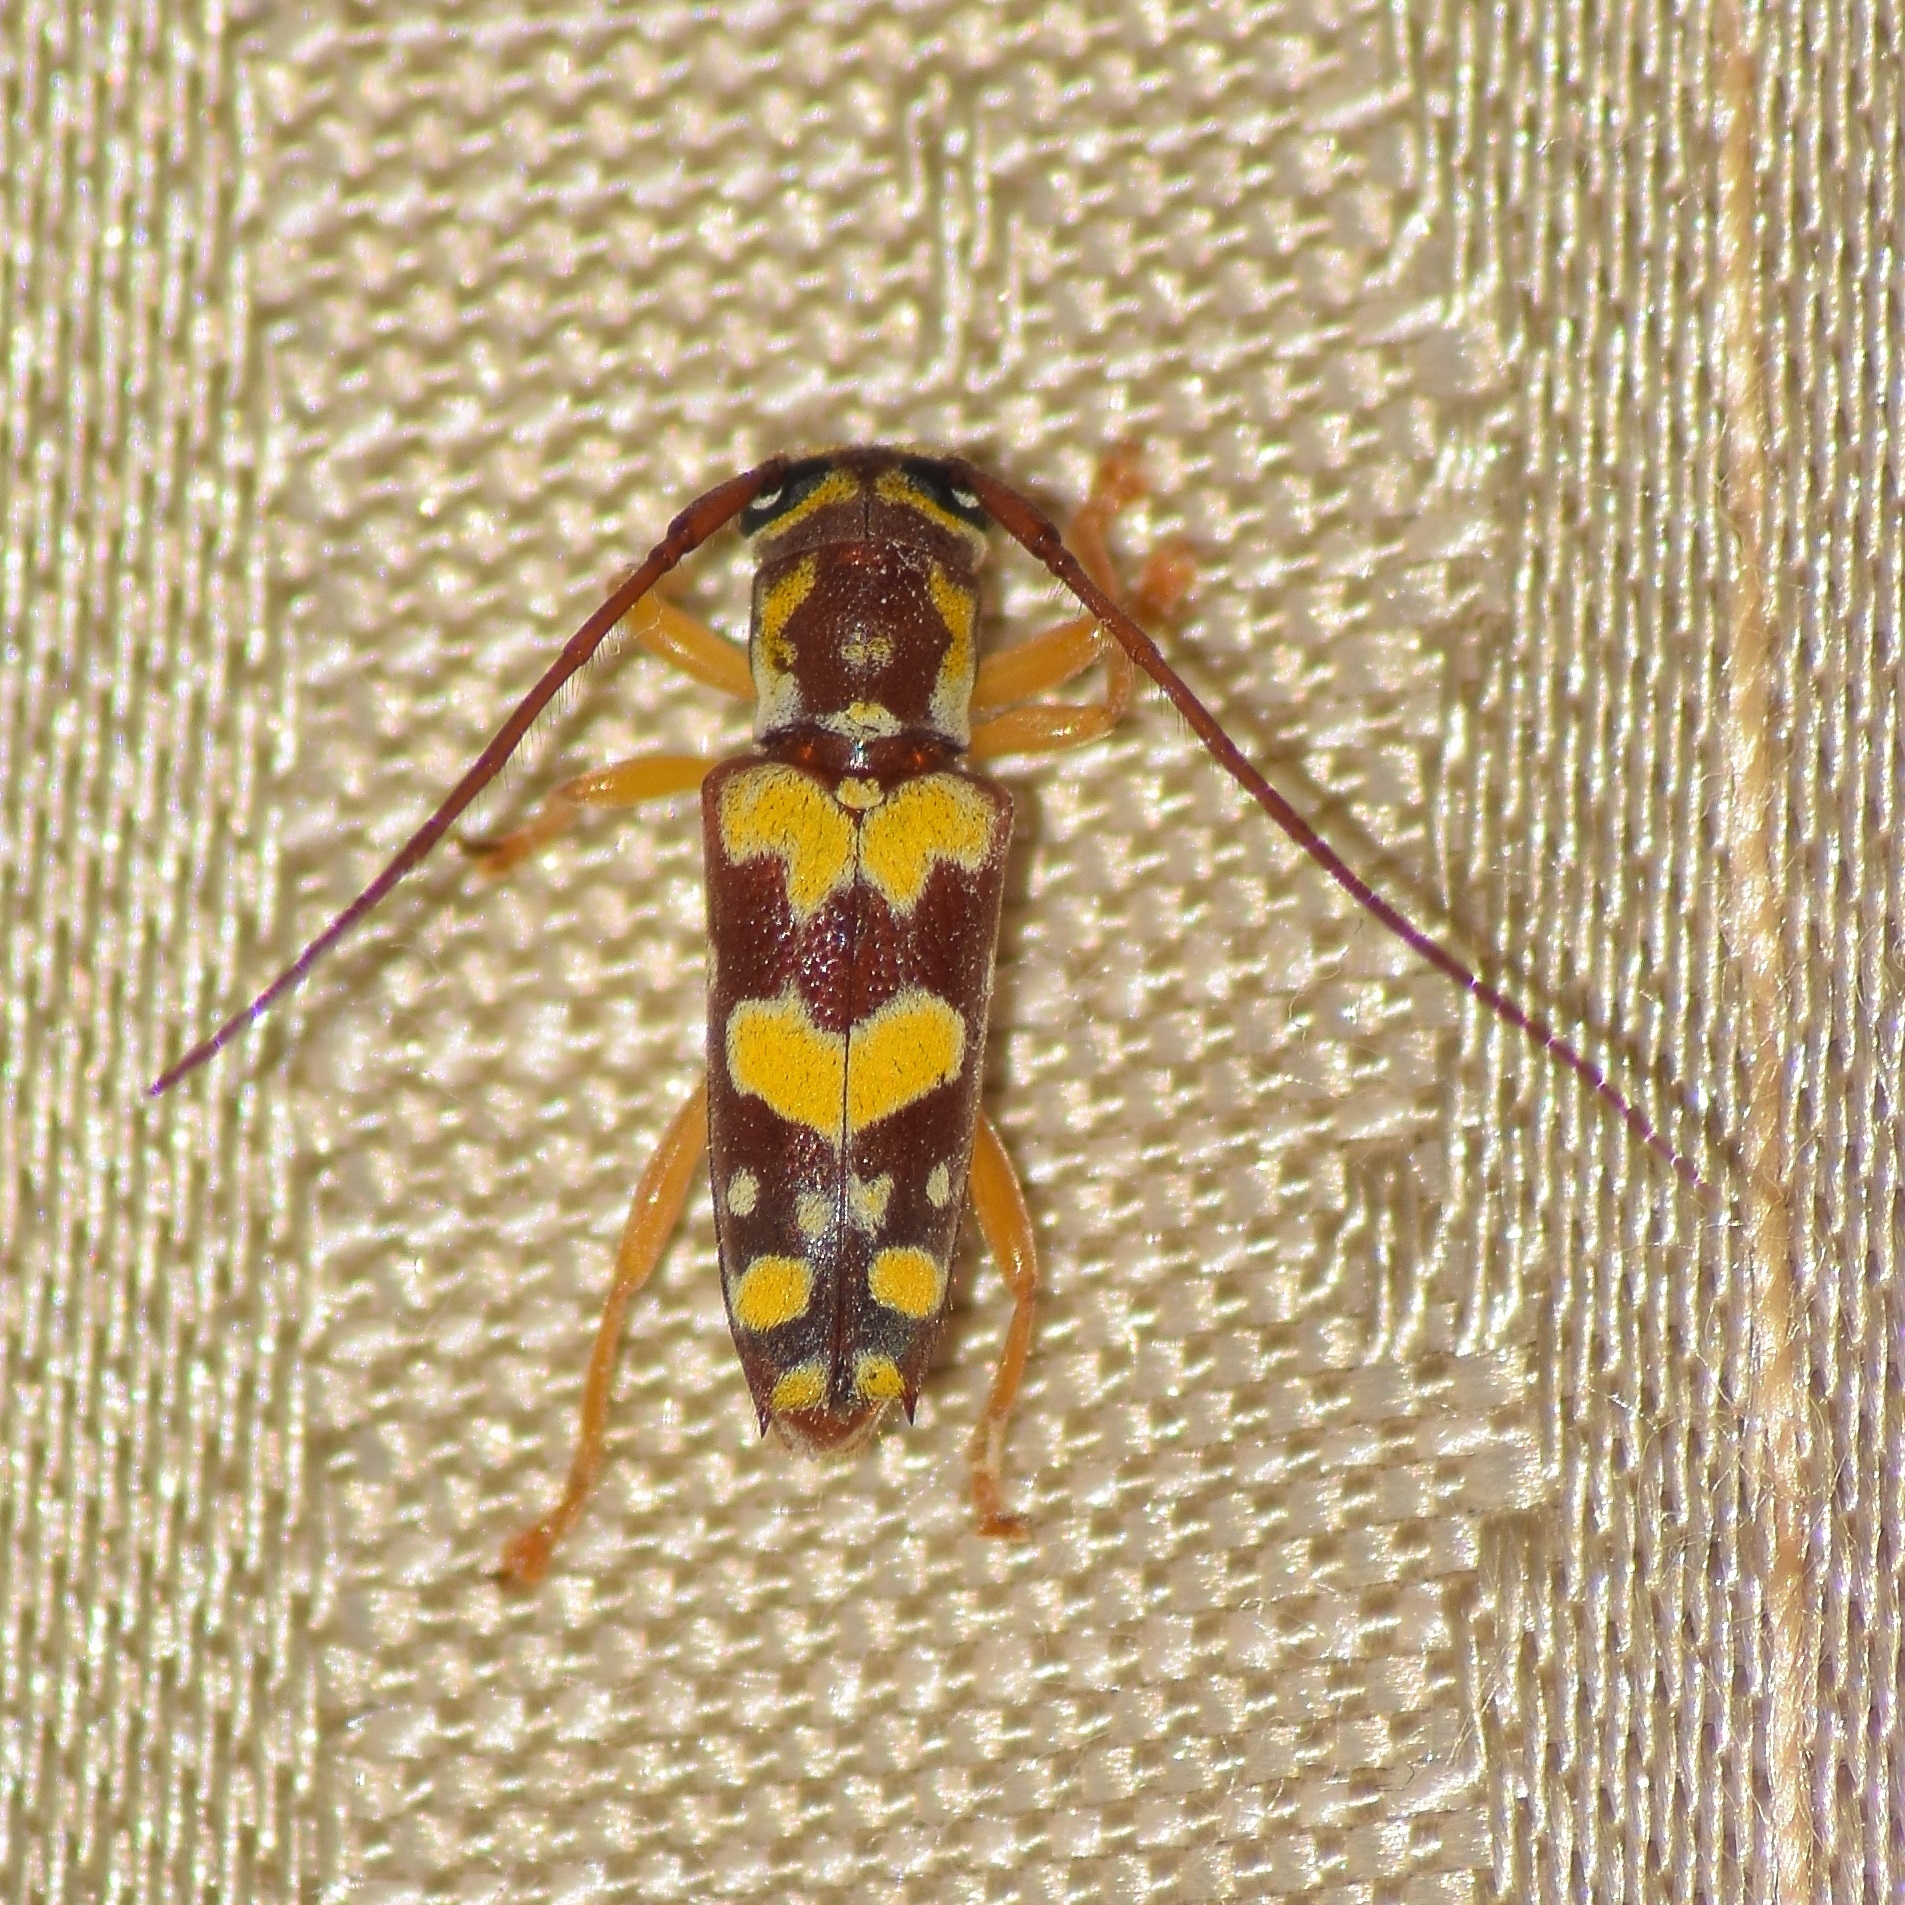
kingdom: Animalia
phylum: Arthropoda
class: Insecta
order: Coleoptera
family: Cerambycidae
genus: Glenea
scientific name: Glenea vellayaniensis
